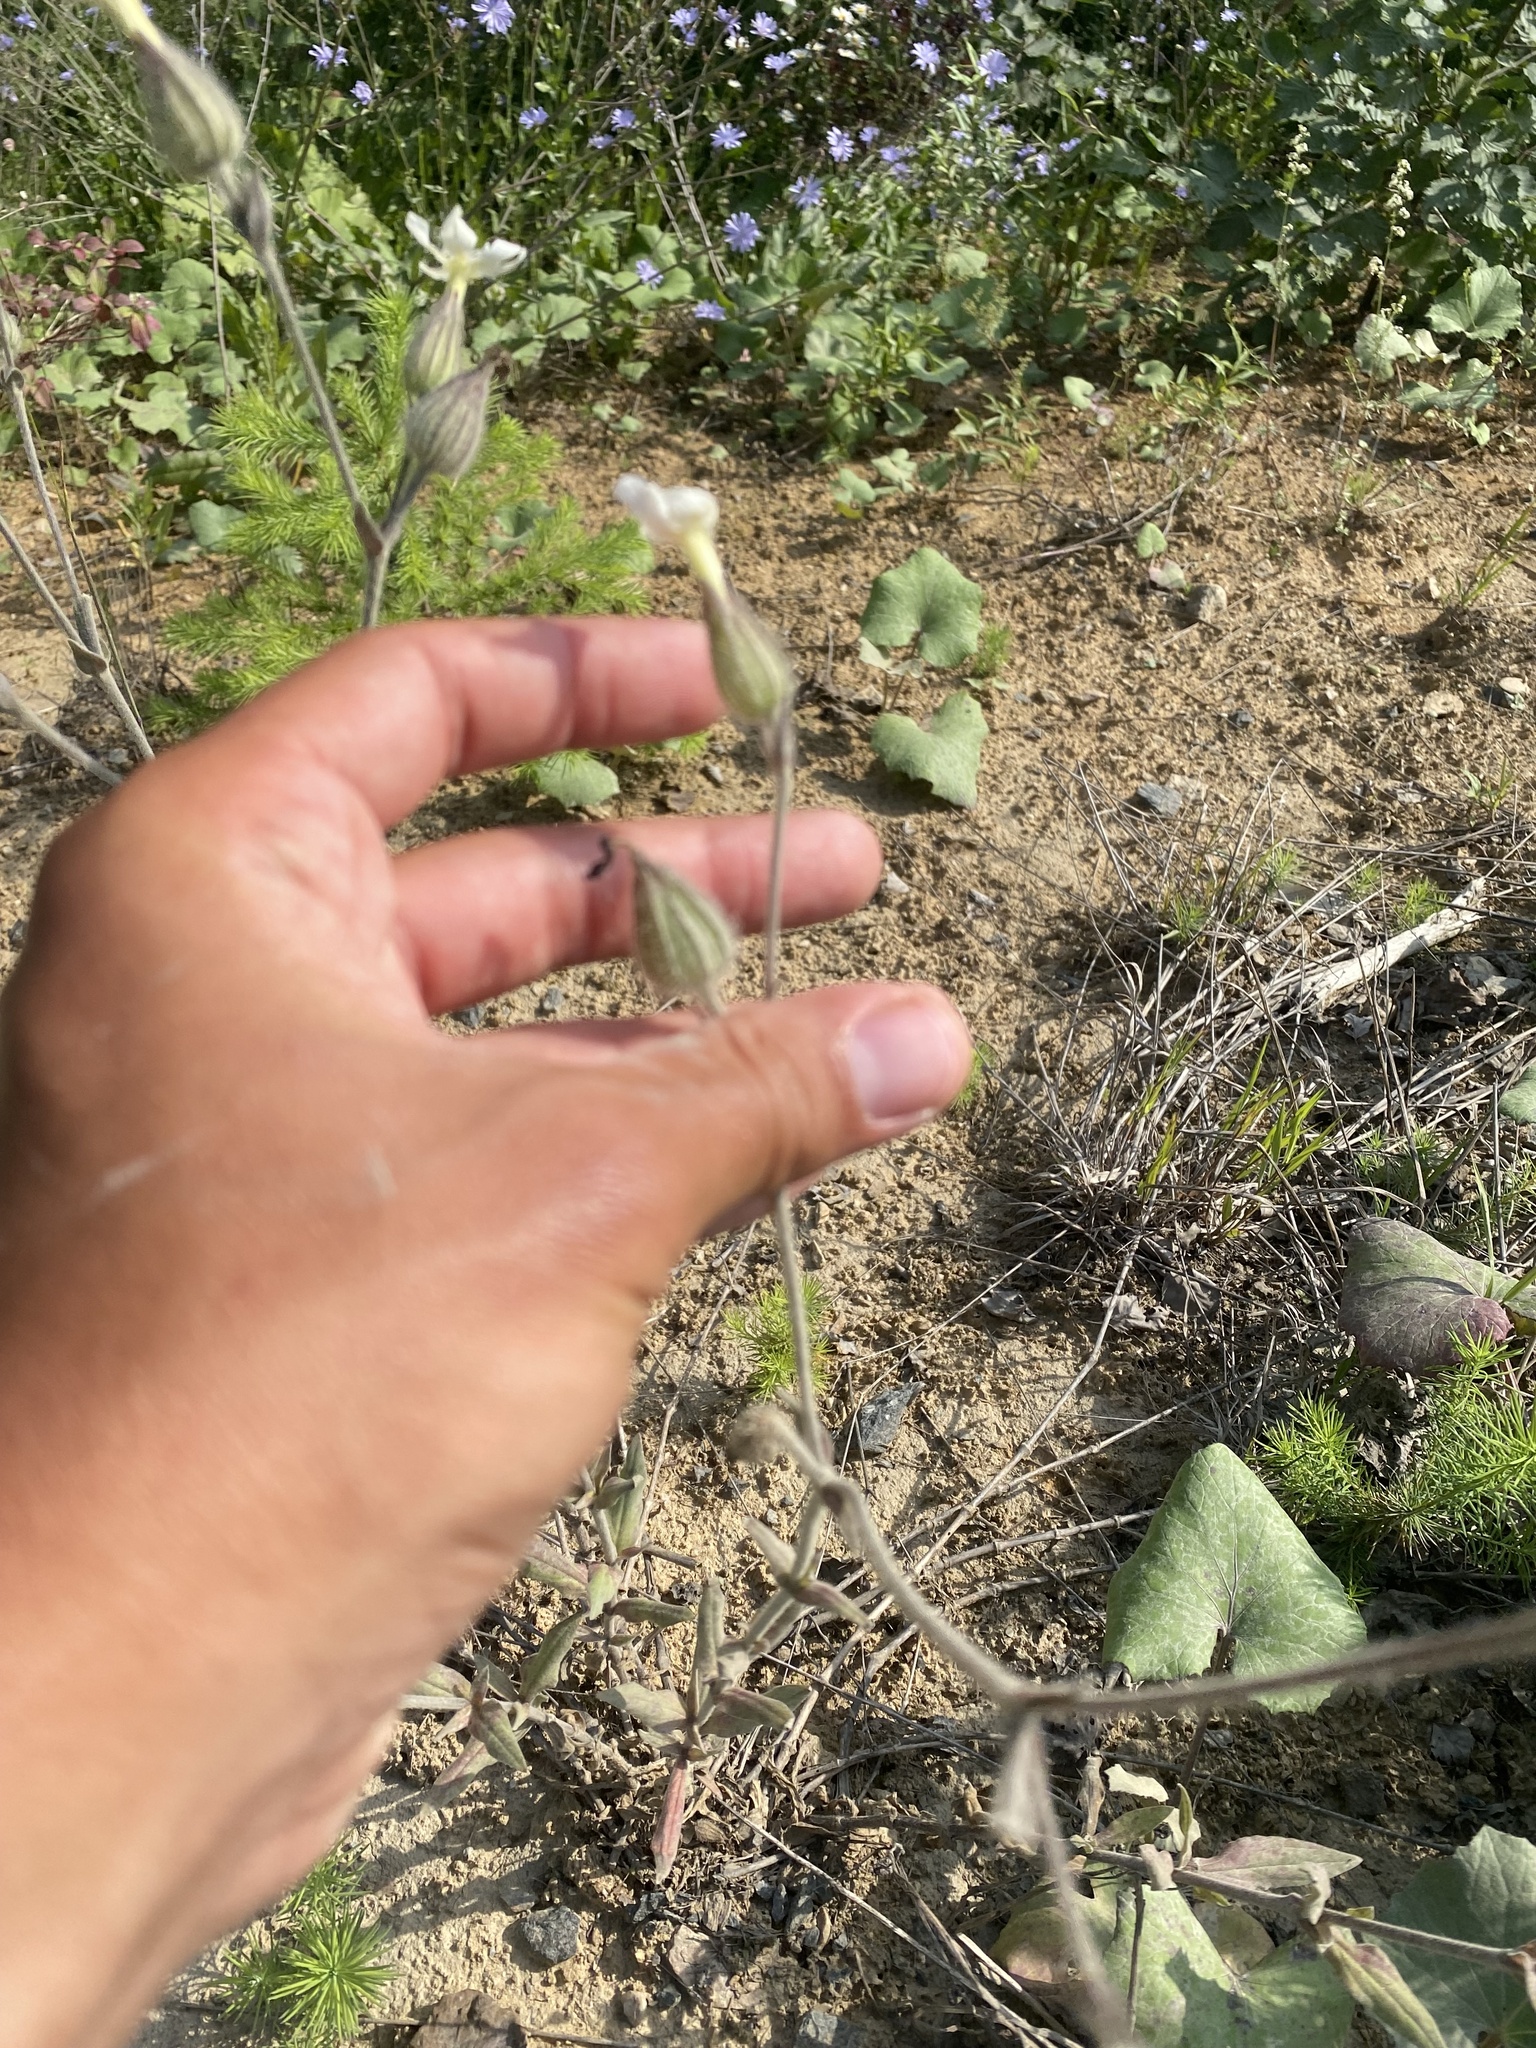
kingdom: Plantae
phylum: Tracheophyta
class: Magnoliopsida
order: Caryophyllales
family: Caryophyllaceae
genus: Silene
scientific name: Silene latifolia
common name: White campion
